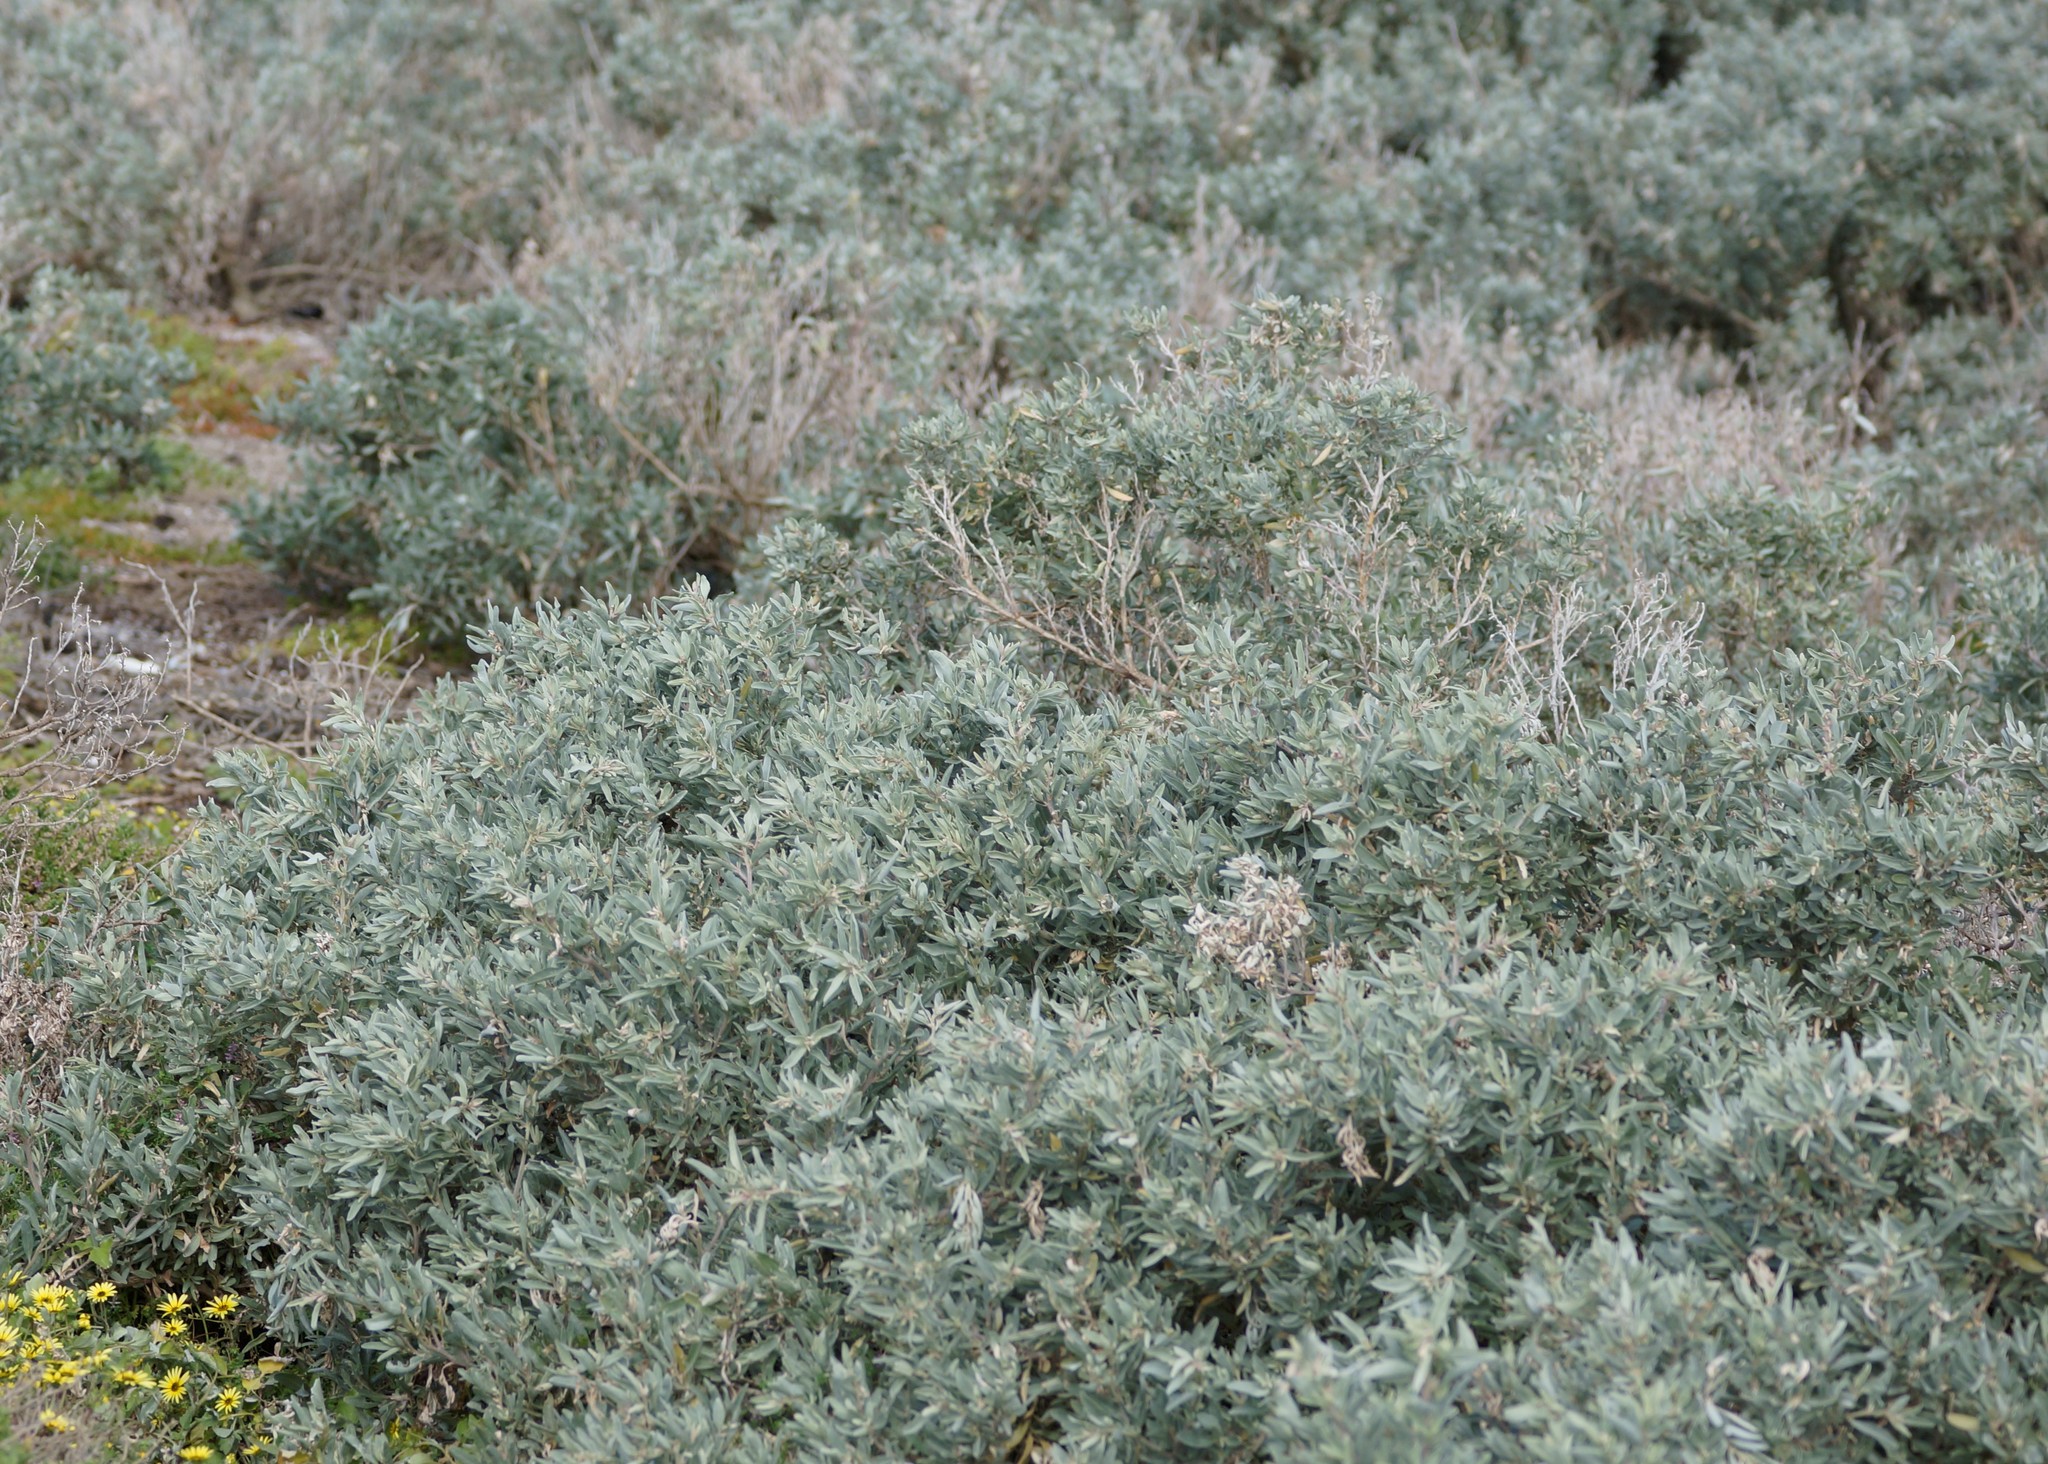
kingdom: Plantae
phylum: Tracheophyta
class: Magnoliopsida
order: Caryophyllales
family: Amaranthaceae
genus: Atriplex
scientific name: Atriplex cinerea
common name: Grey saltbush
